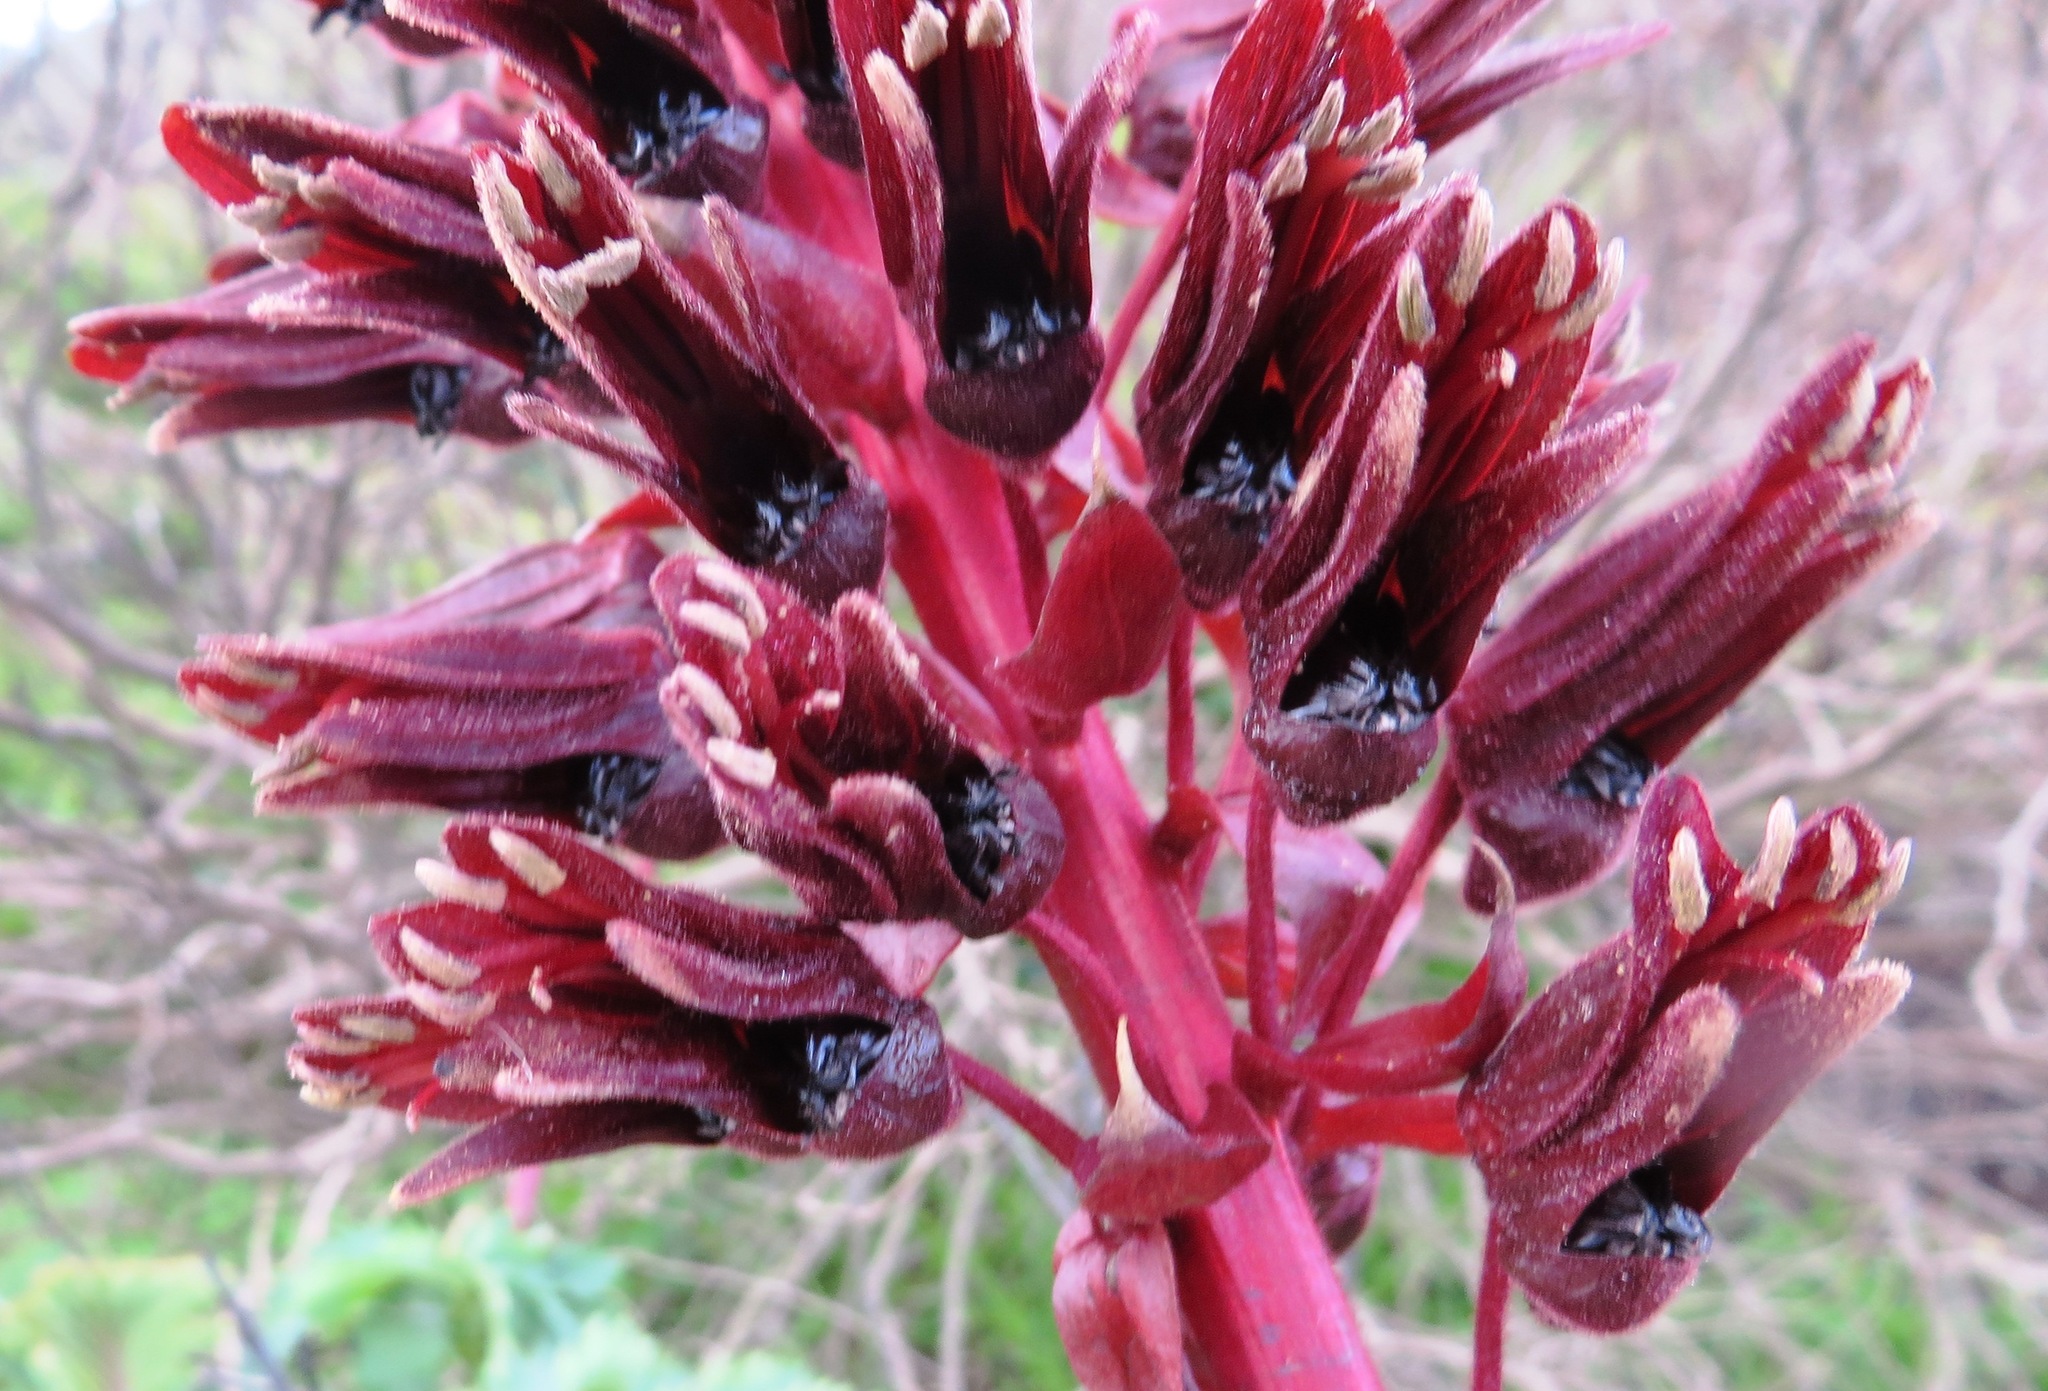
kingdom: Plantae
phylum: Tracheophyta
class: Magnoliopsida
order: Geraniales
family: Melianthaceae
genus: Melianthus
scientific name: Melianthus major
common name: Honey-flower
